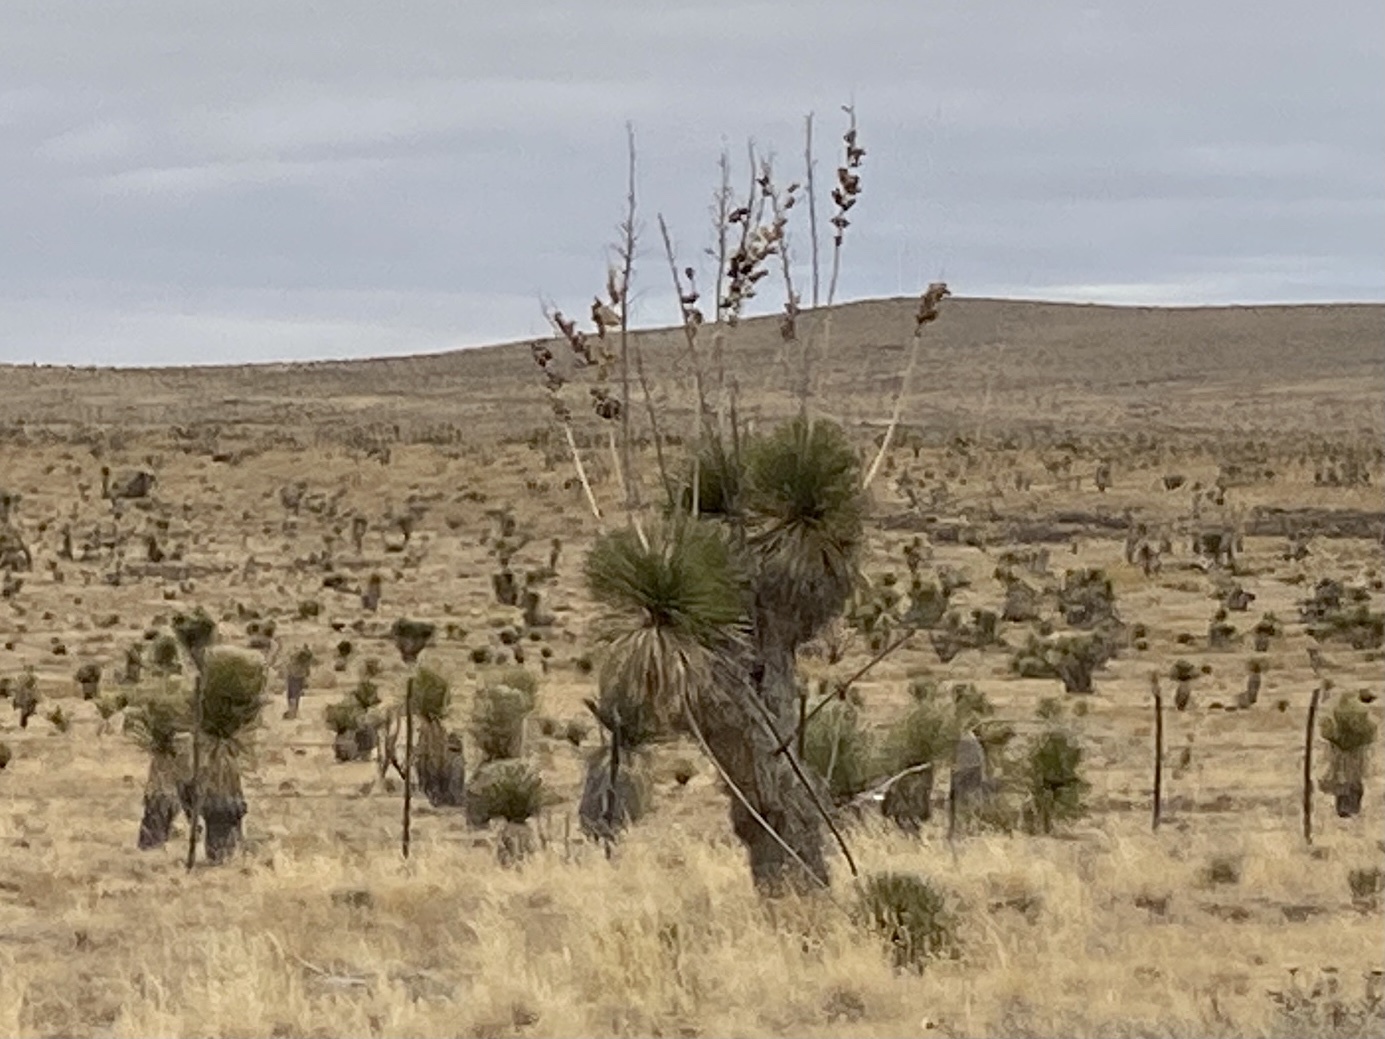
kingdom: Plantae
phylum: Tracheophyta
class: Liliopsida
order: Asparagales
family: Asparagaceae
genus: Yucca
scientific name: Yucca elata
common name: Palmella
